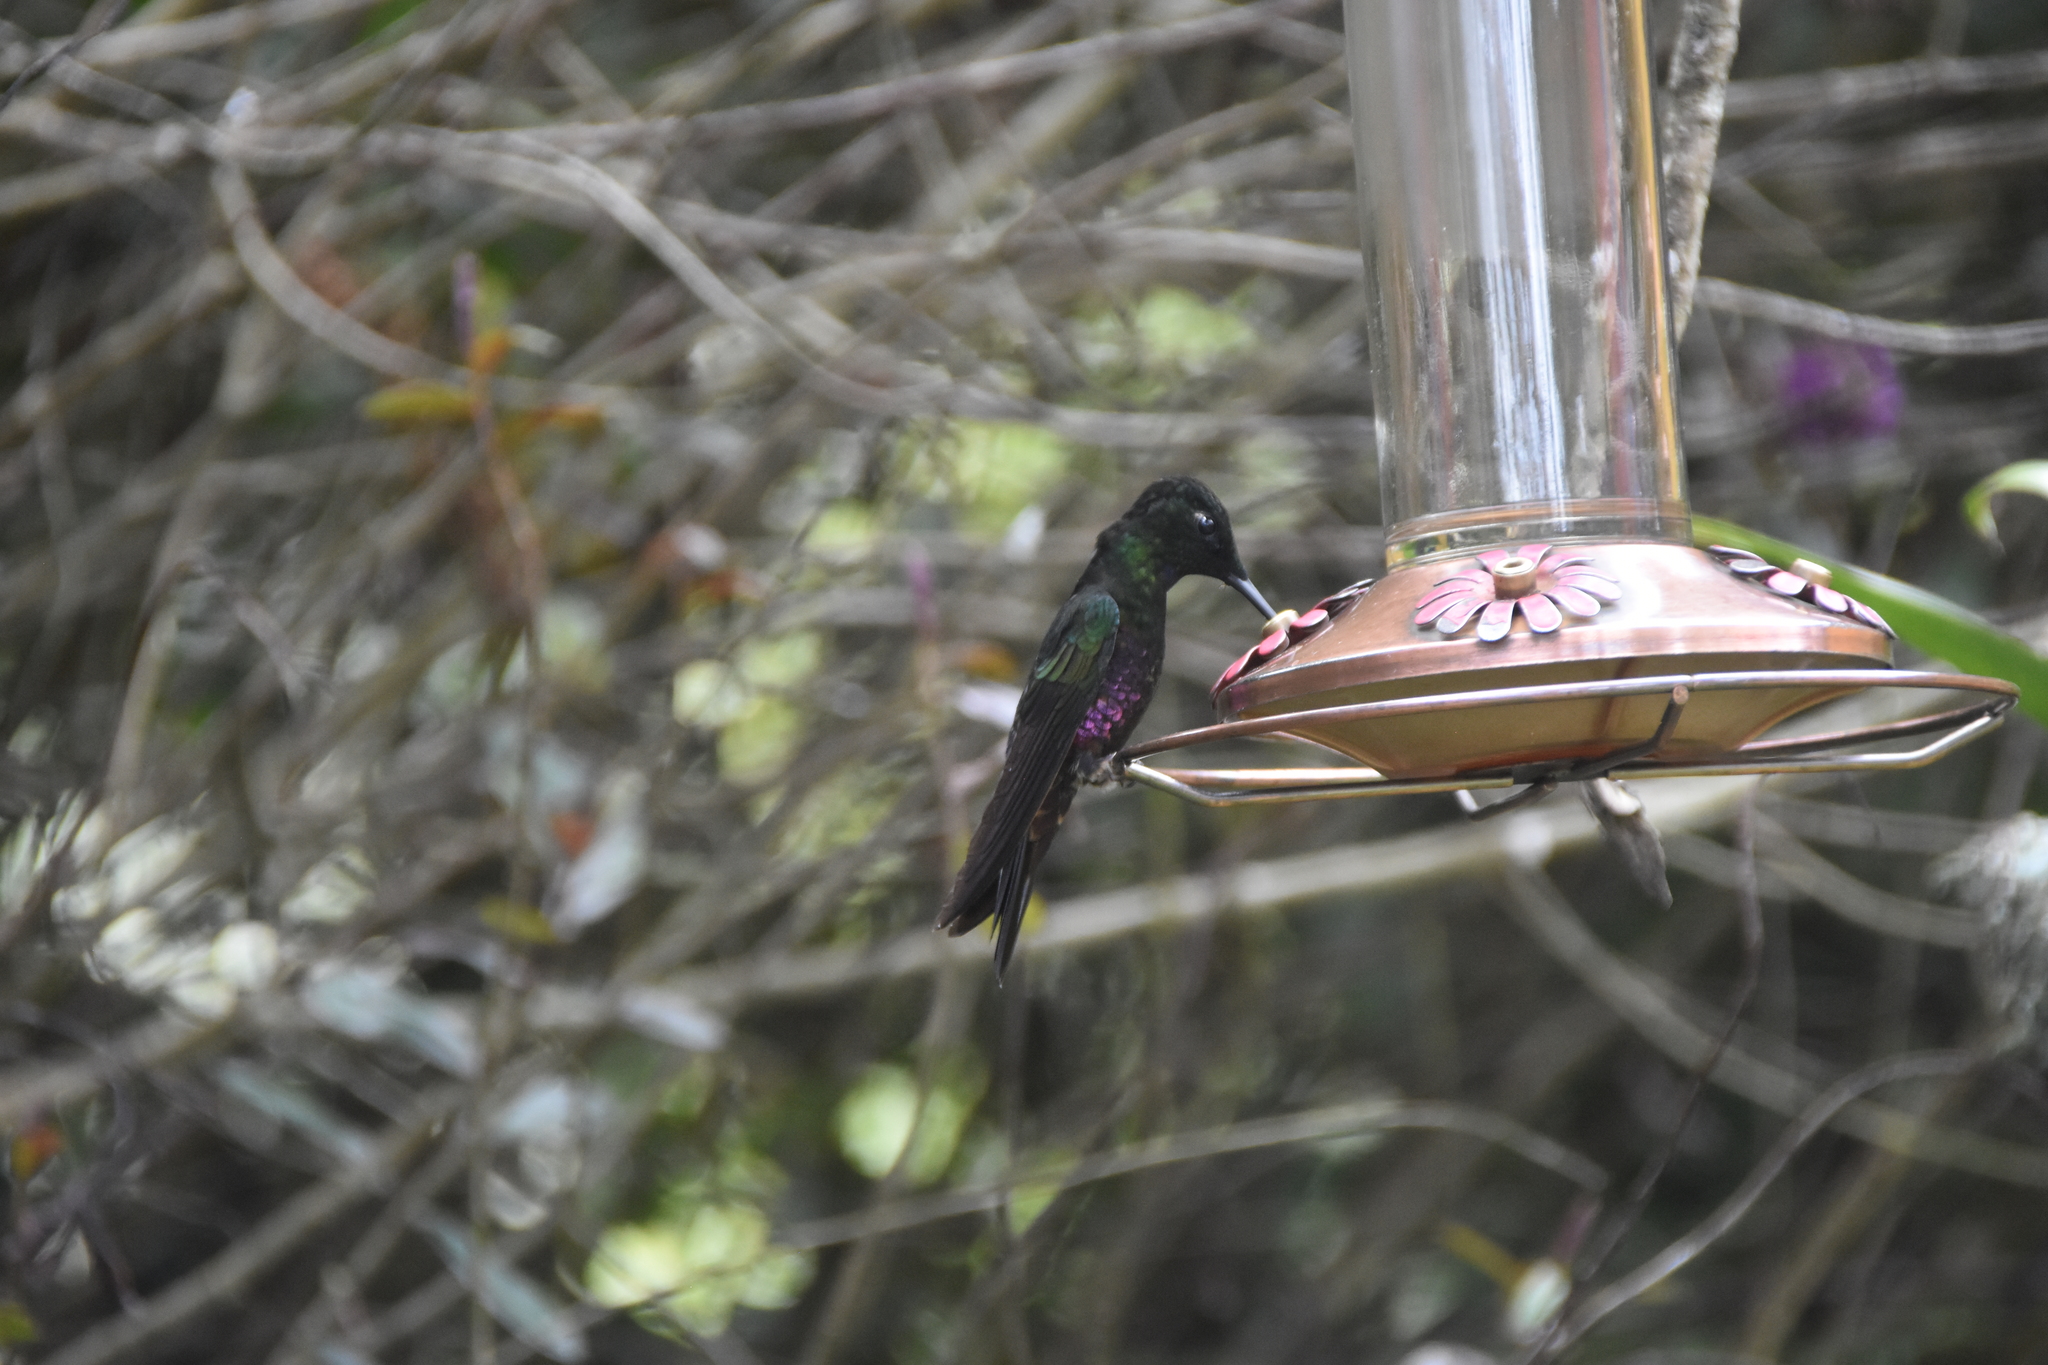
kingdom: Animalia
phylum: Chordata
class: Aves
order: Apodiformes
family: Trochilidae
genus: Coeligena
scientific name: Coeligena helianthea
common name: Blue-throated starfrontlet
